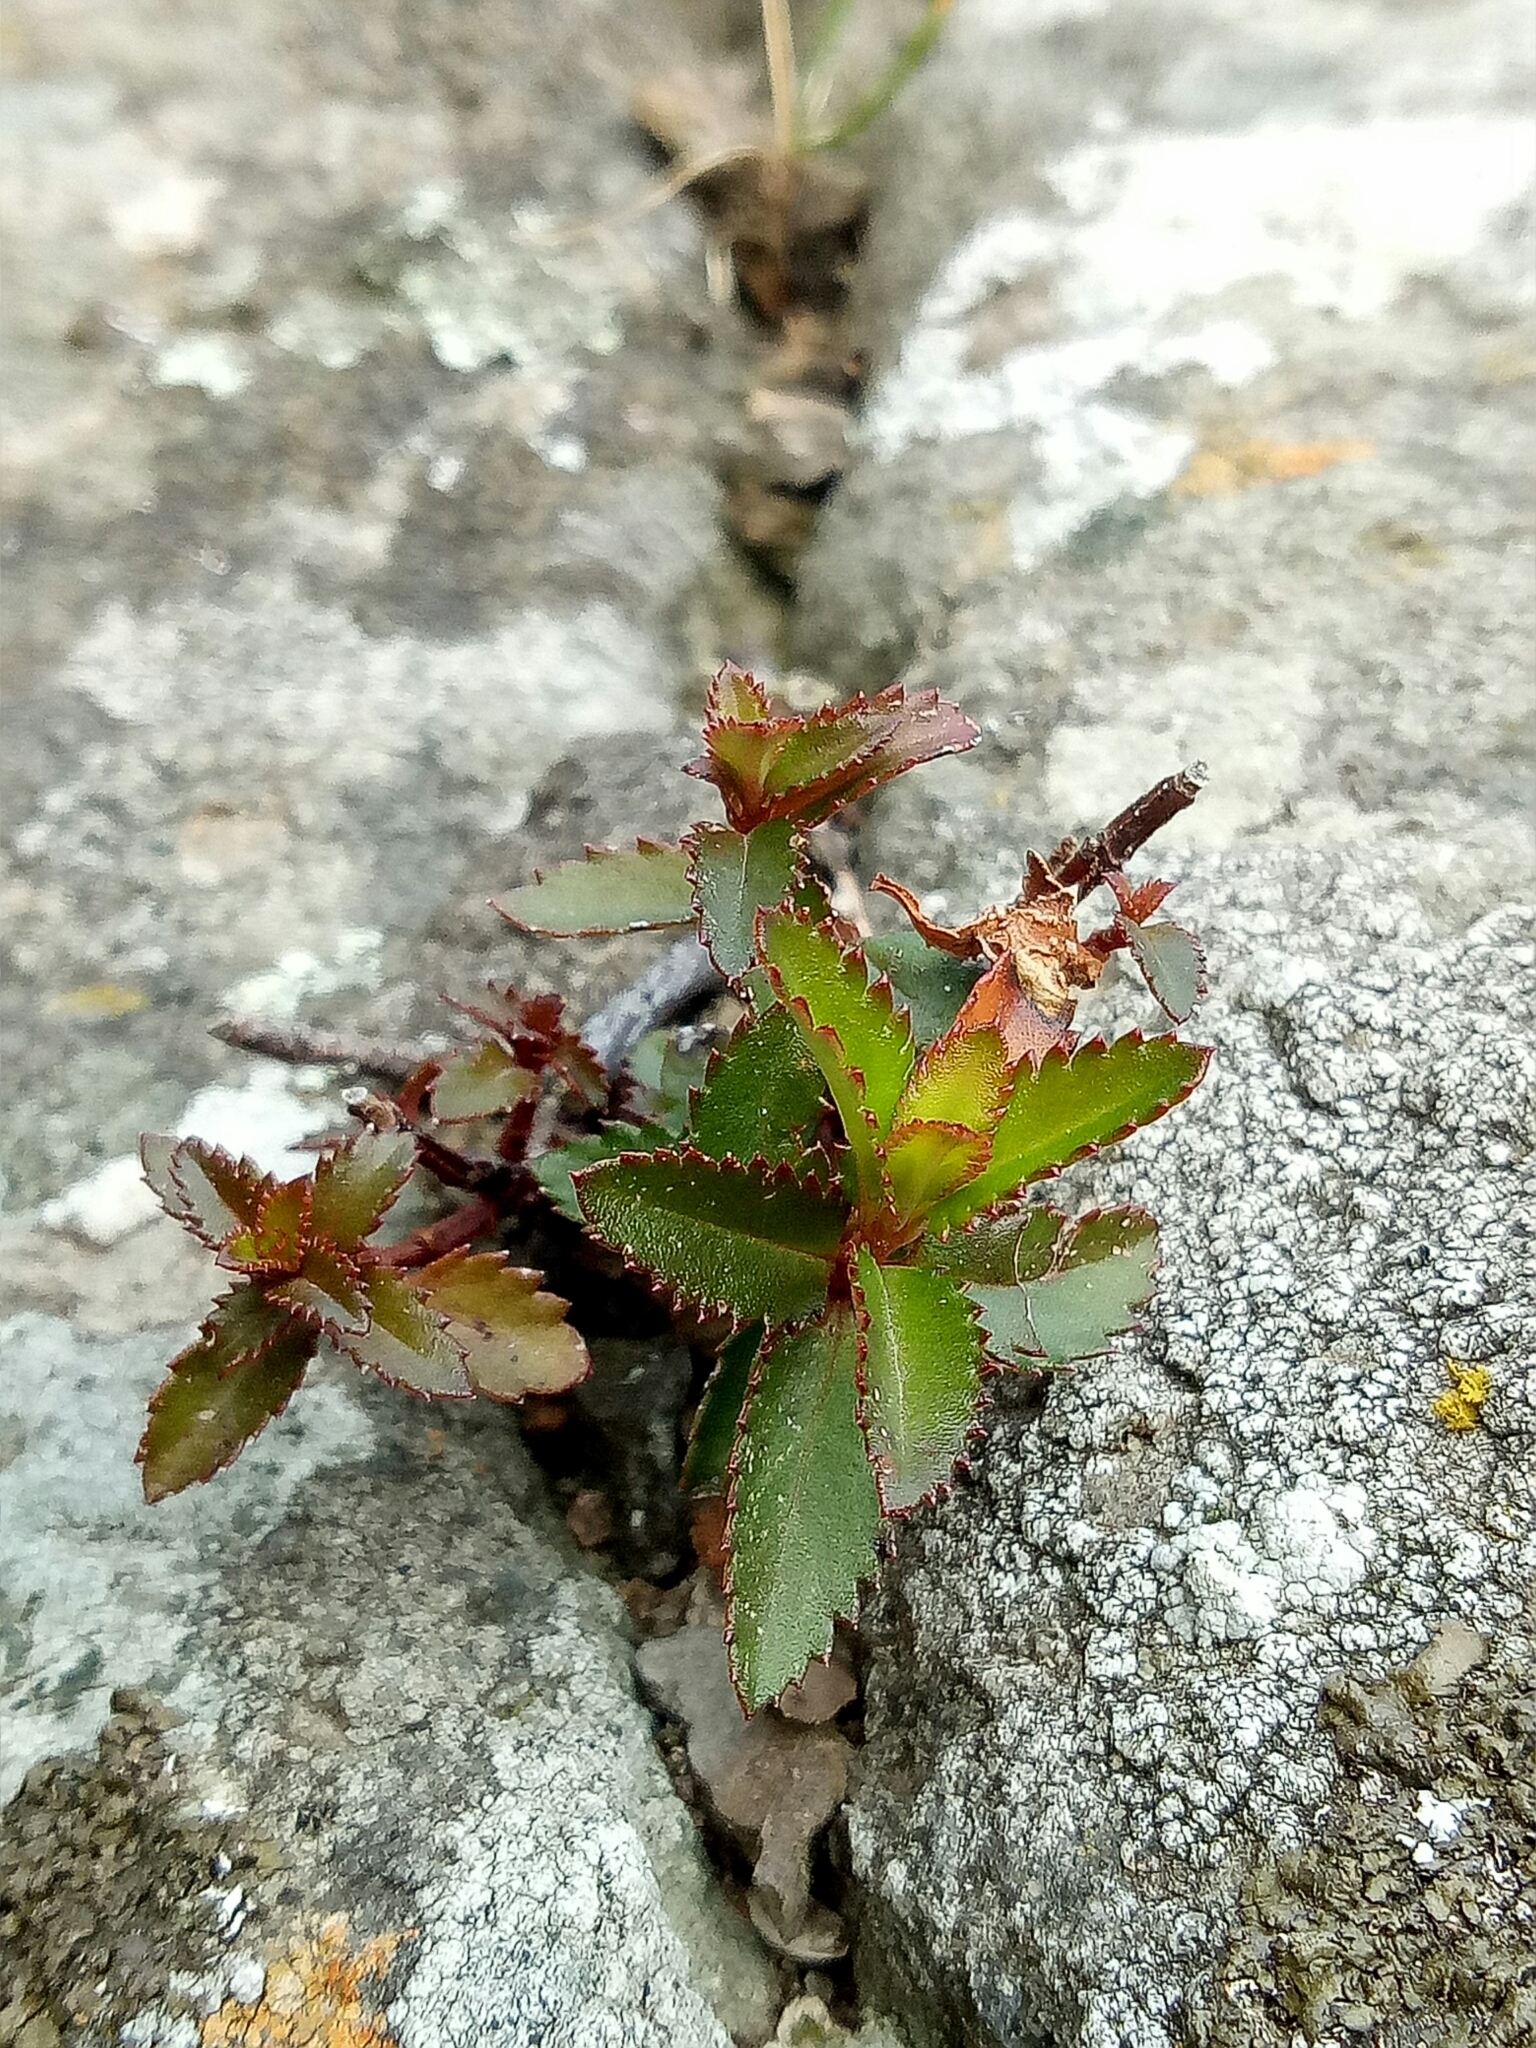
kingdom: Plantae
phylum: Tracheophyta
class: Magnoliopsida
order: Saxifragales
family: Haloragaceae
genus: Haloragis
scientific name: Haloragis erecta
